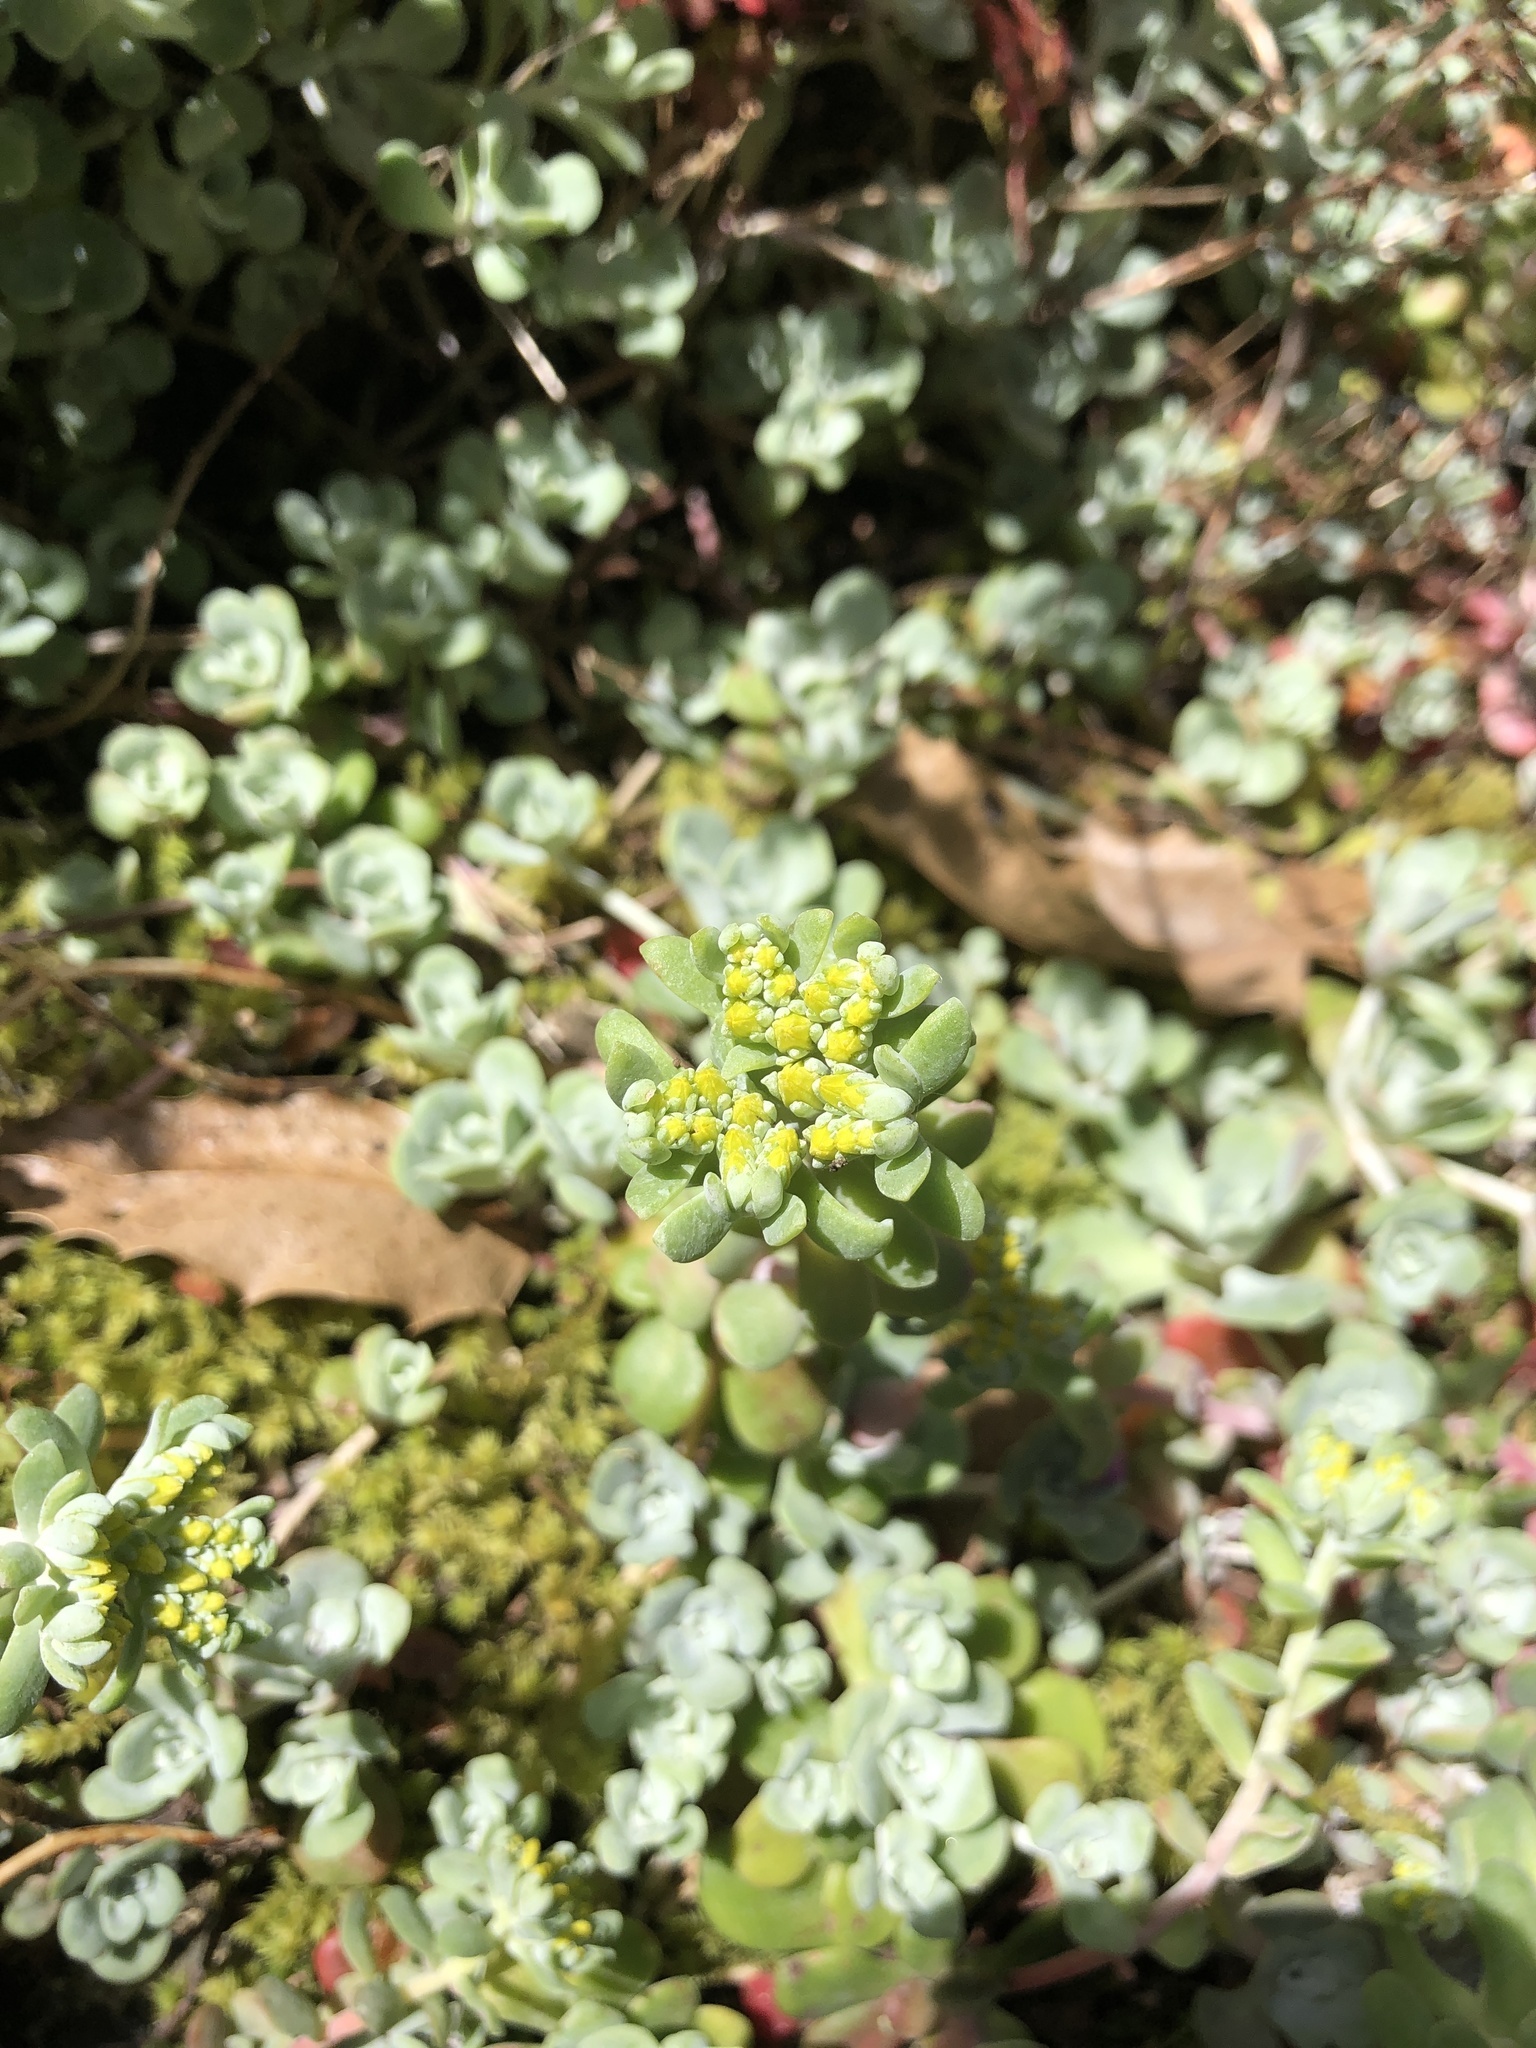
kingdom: Plantae
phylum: Tracheophyta
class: Magnoliopsida
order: Saxifragales
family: Crassulaceae
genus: Sedum
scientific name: Sedum spathulifolium
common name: Colorado stonecrop
